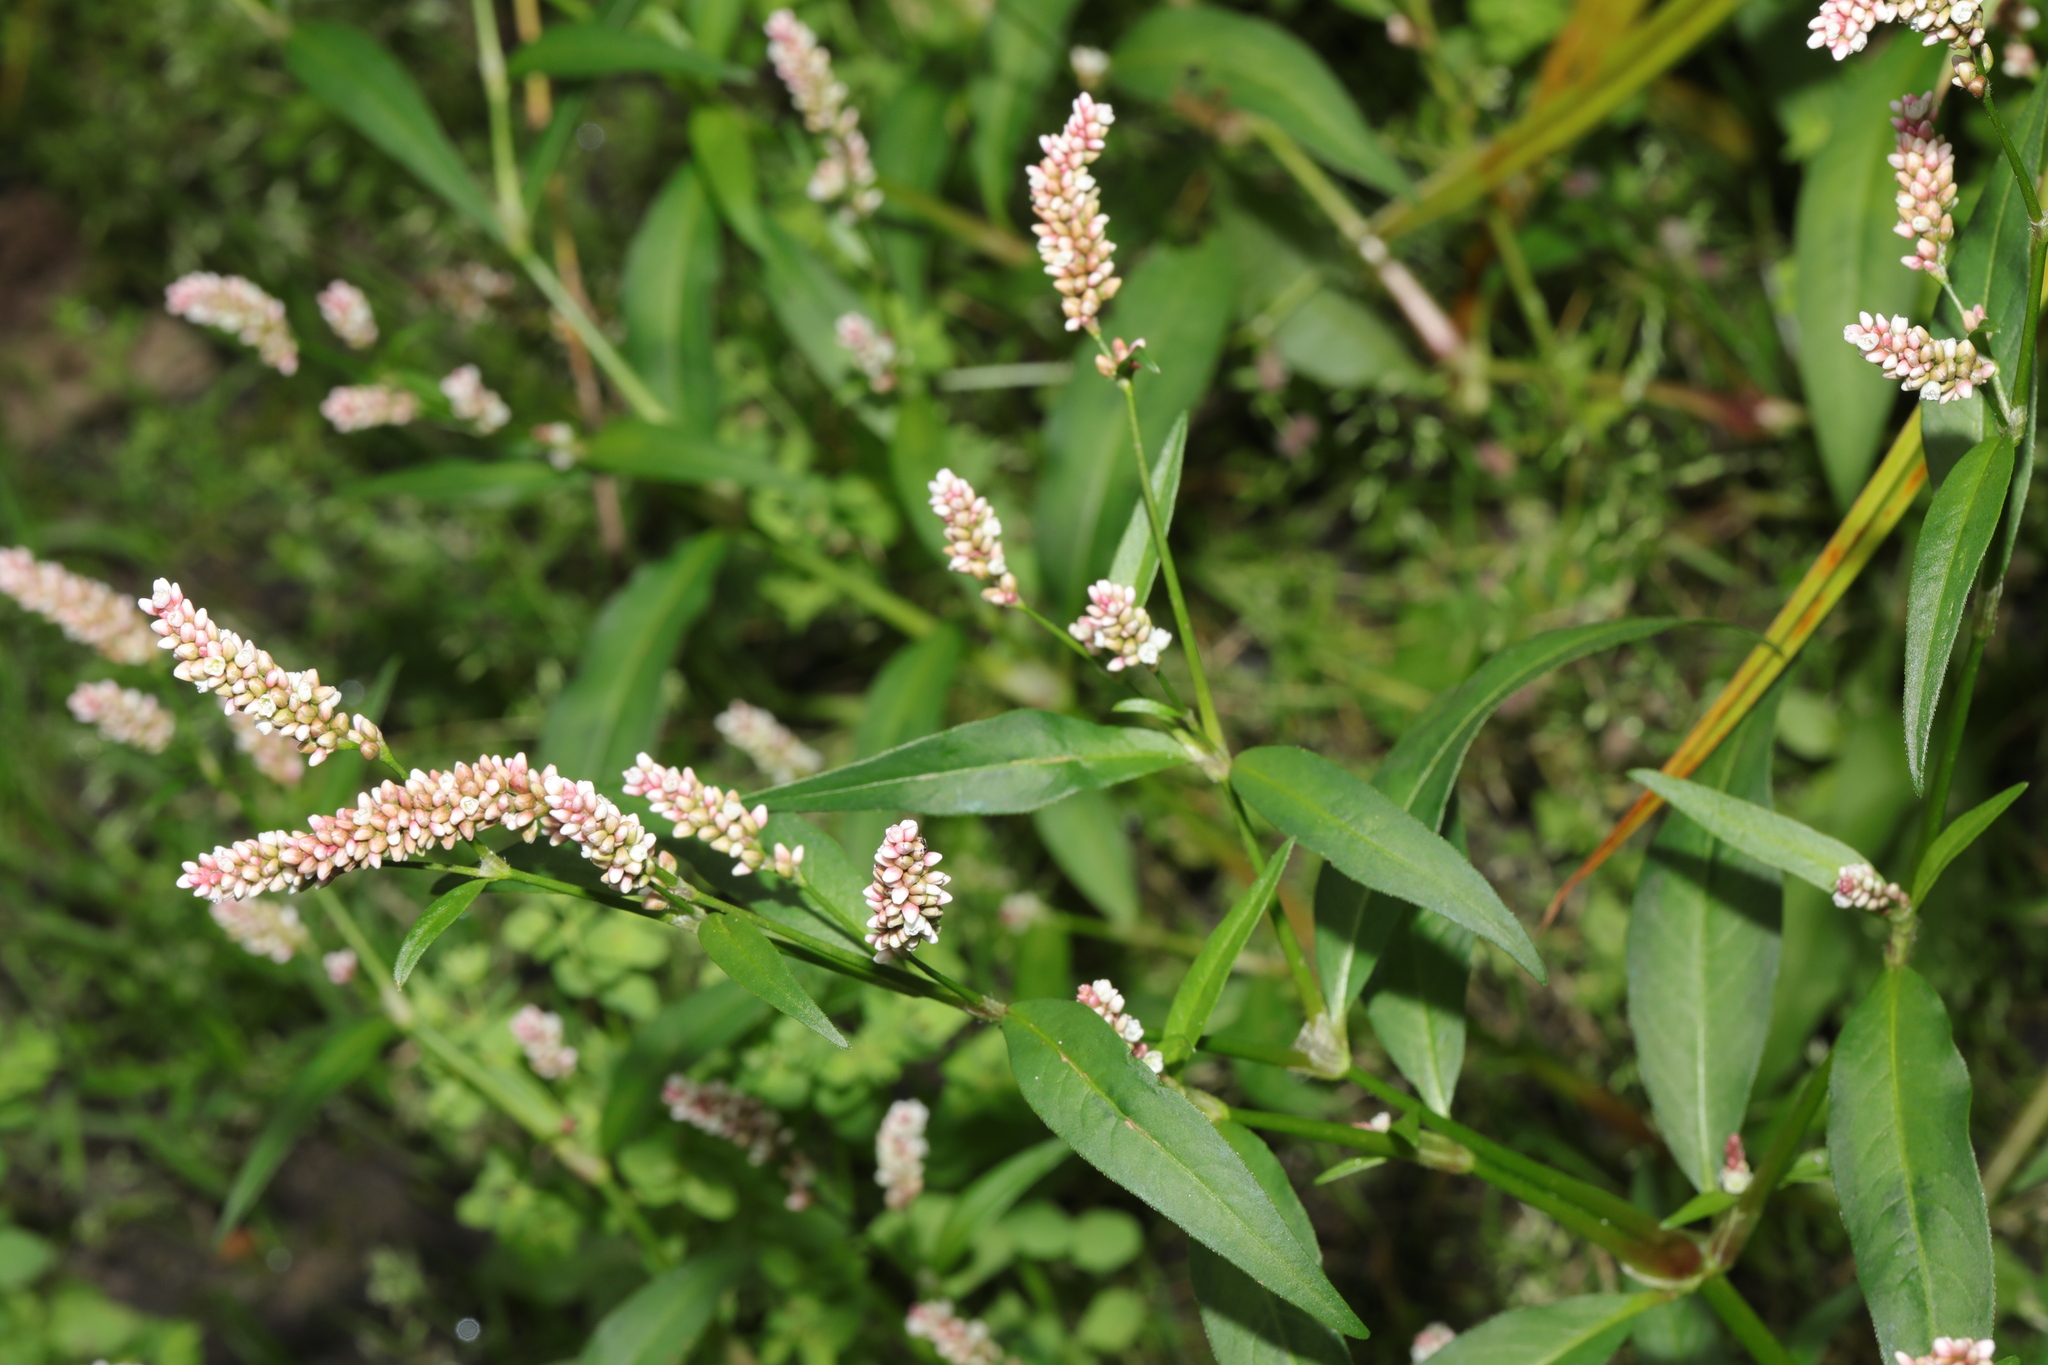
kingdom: Plantae
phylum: Tracheophyta
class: Magnoliopsida
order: Caryophyllales
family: Polygonaceae
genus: Persicaria
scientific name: Persicaria maculosa
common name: Redshank
